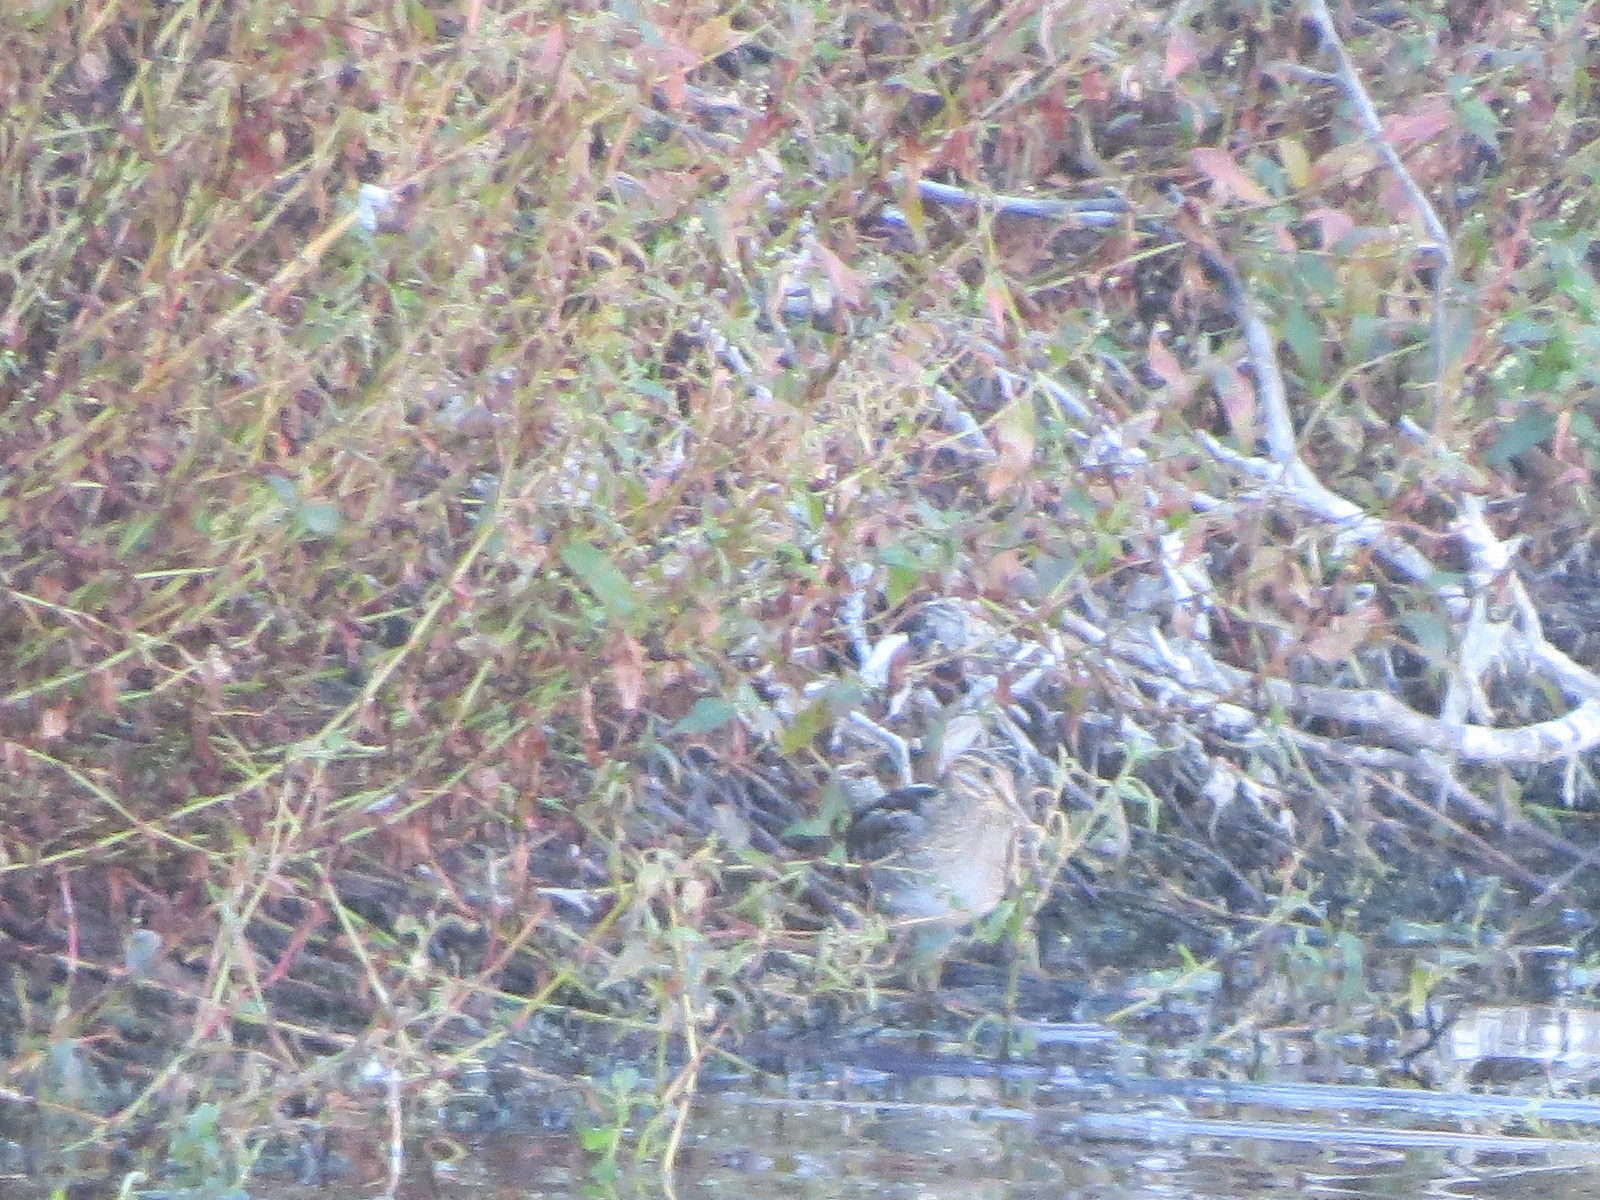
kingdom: Animalia
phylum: Chordata
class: Aves
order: Charadriiformes
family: Scolopacidae
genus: Gallinago
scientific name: Gallinago delicata
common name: Wilson's snipe
